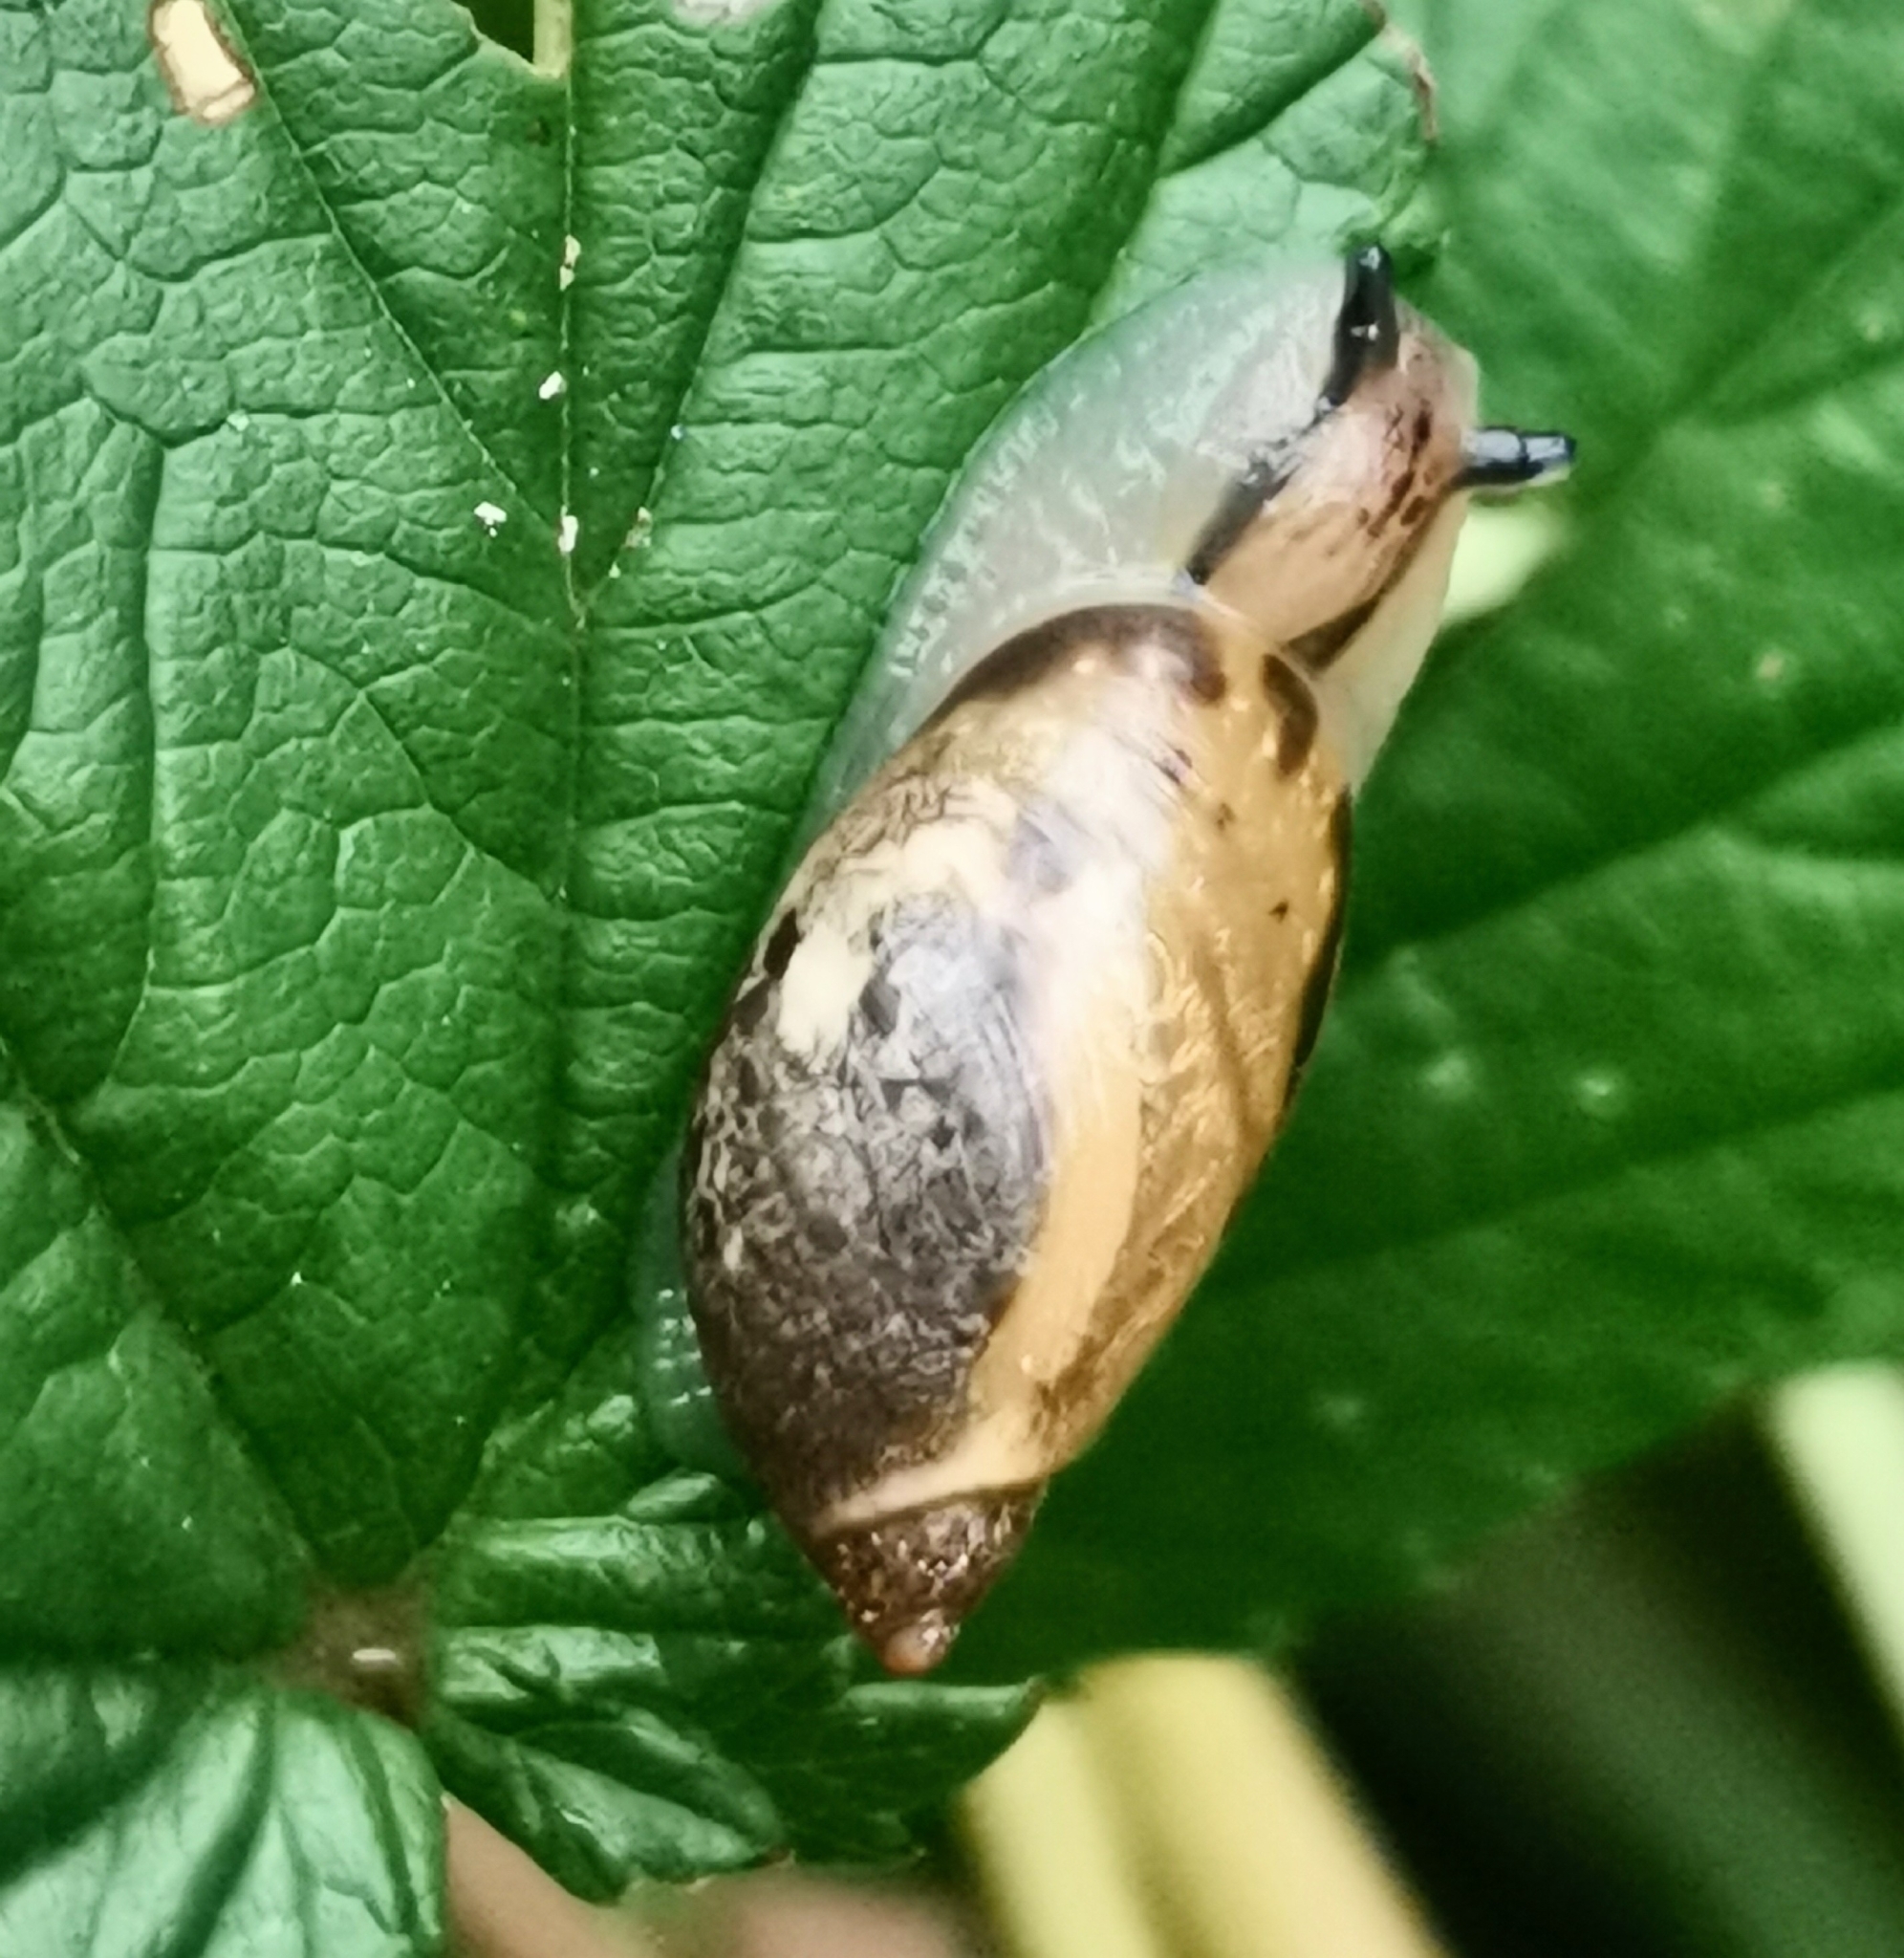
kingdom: Animalia
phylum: Mollusca
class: Gastropoda
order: Stylommatophora
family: Succineidae
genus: Succinea
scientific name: Succinea putris
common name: European ambersnail
